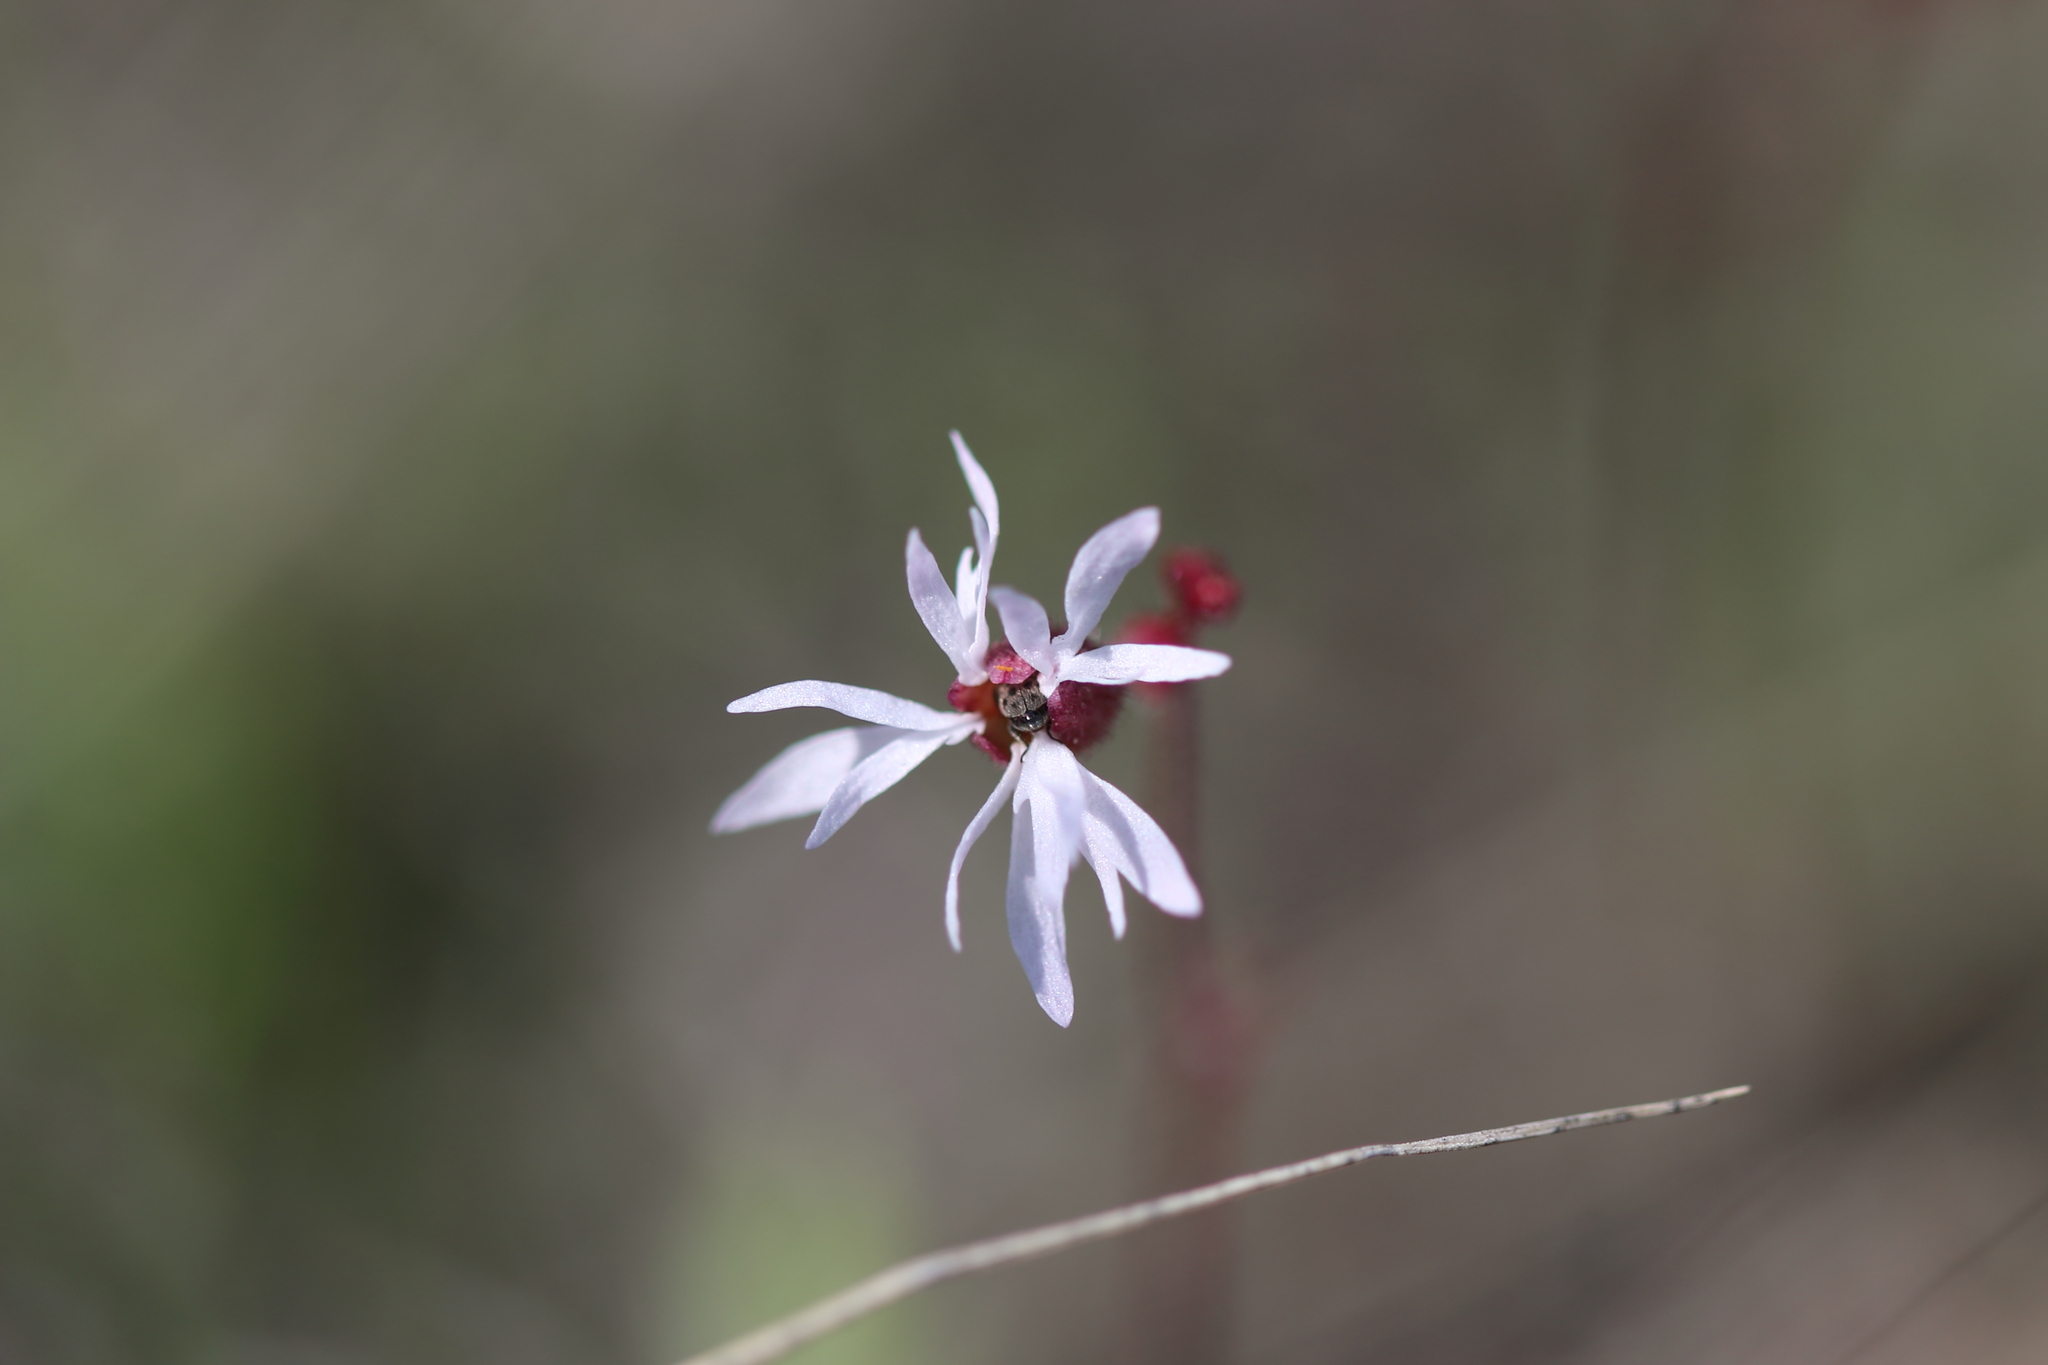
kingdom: Plantae
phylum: Tracheophyta
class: Magnoliopsida
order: Saxifragales
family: Saxifragaceae
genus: Lithophragma
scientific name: Lithophragma glabrum
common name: Bulbous prairie-star
